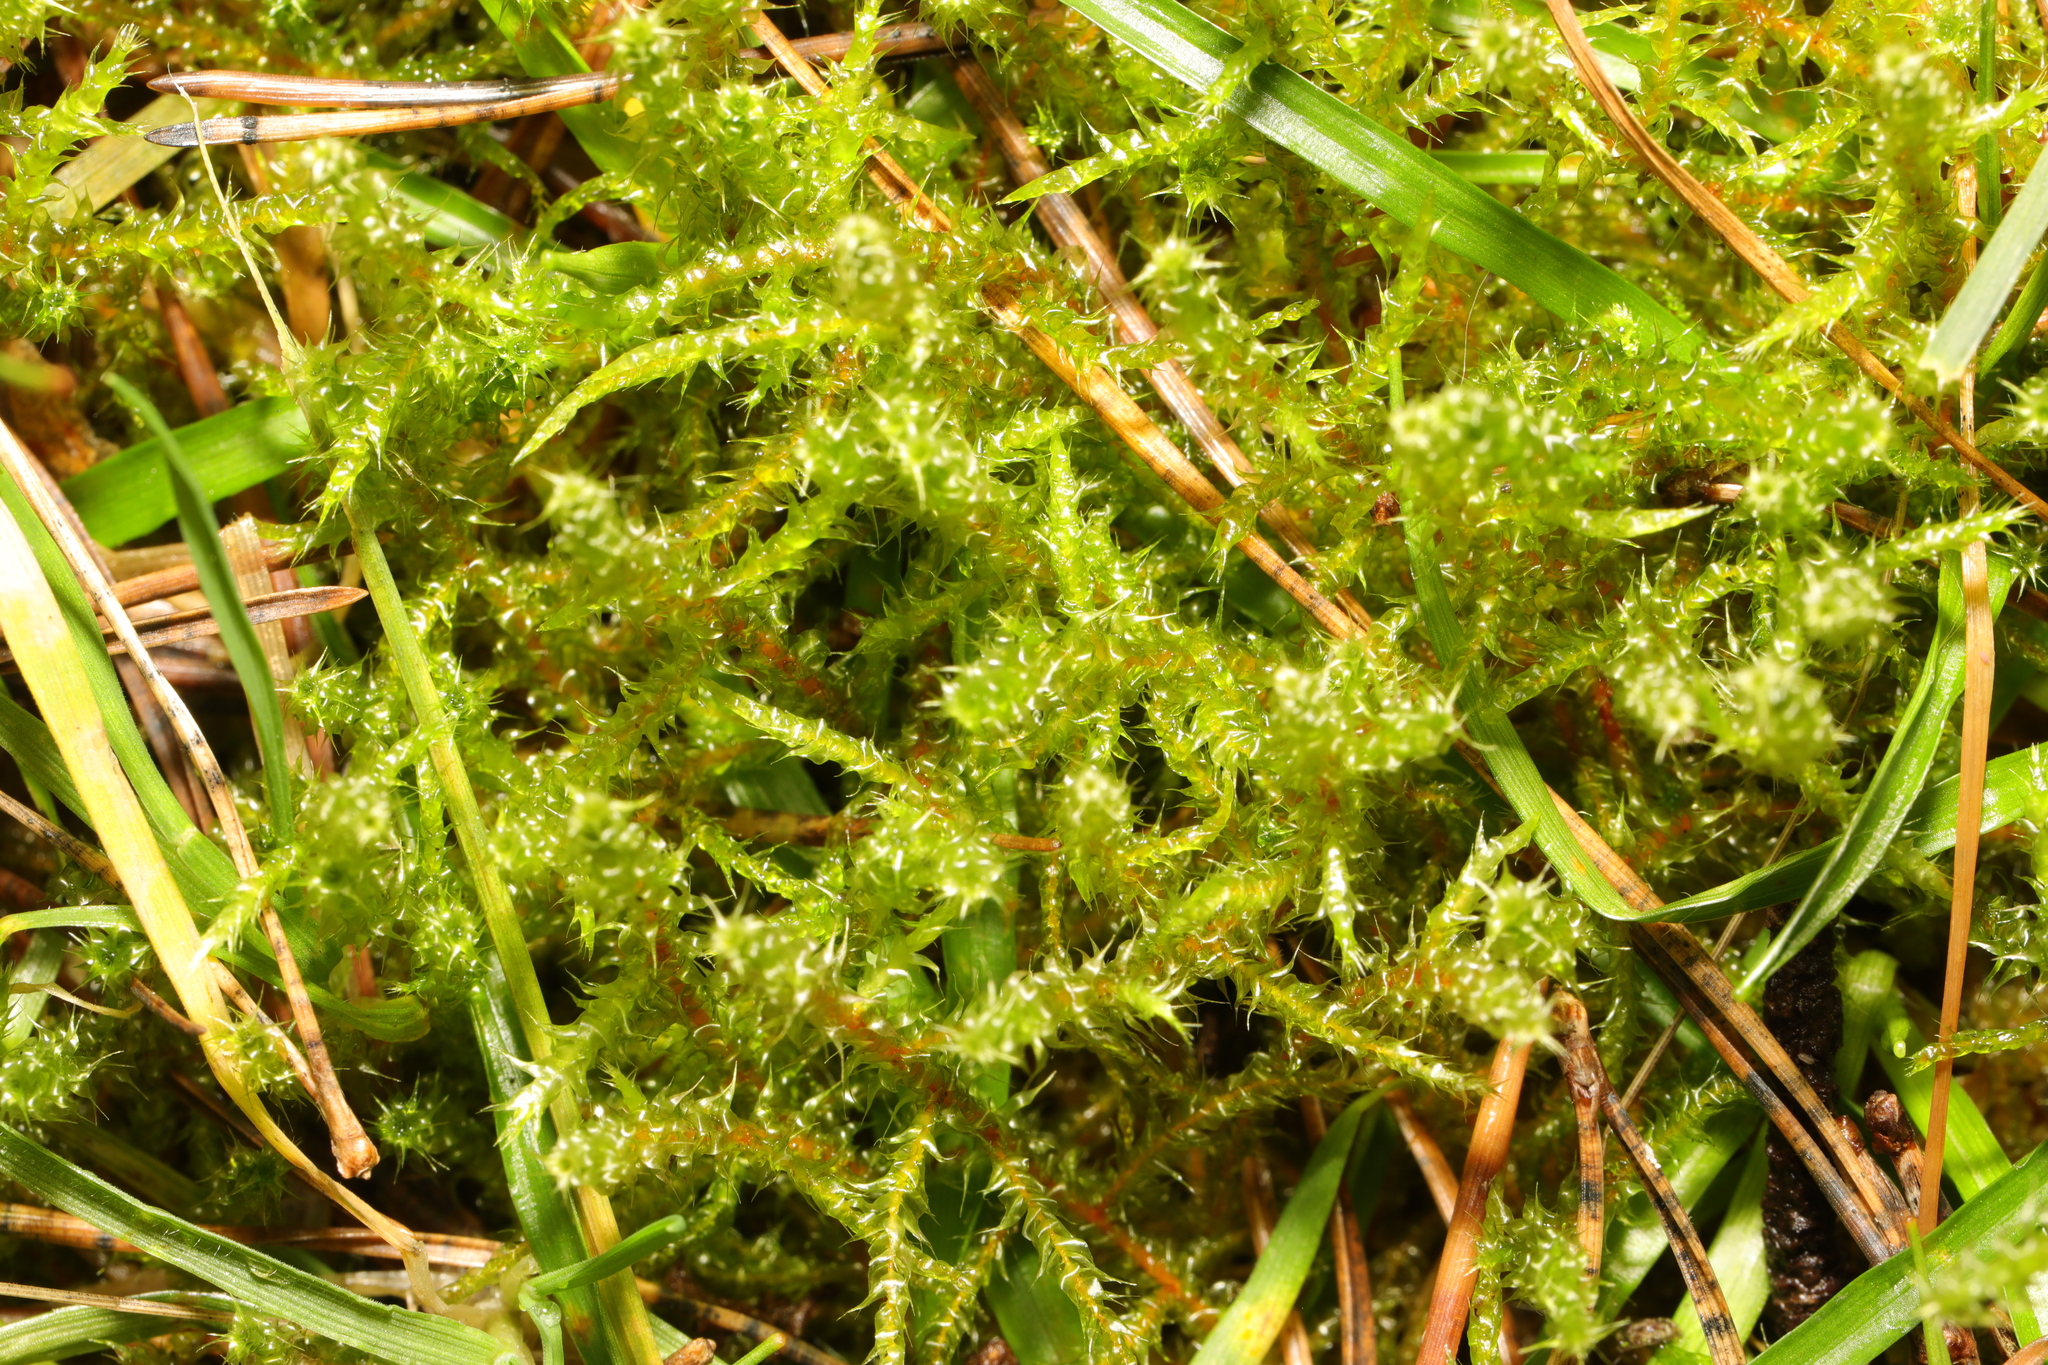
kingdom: Plantae
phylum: Bryophyta
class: Bryopsida
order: Hypnales
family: Hylocomiaceae
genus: Rhytidiadelphus
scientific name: Rhytidiadelphus squarrosus
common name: Springy turf-moss
